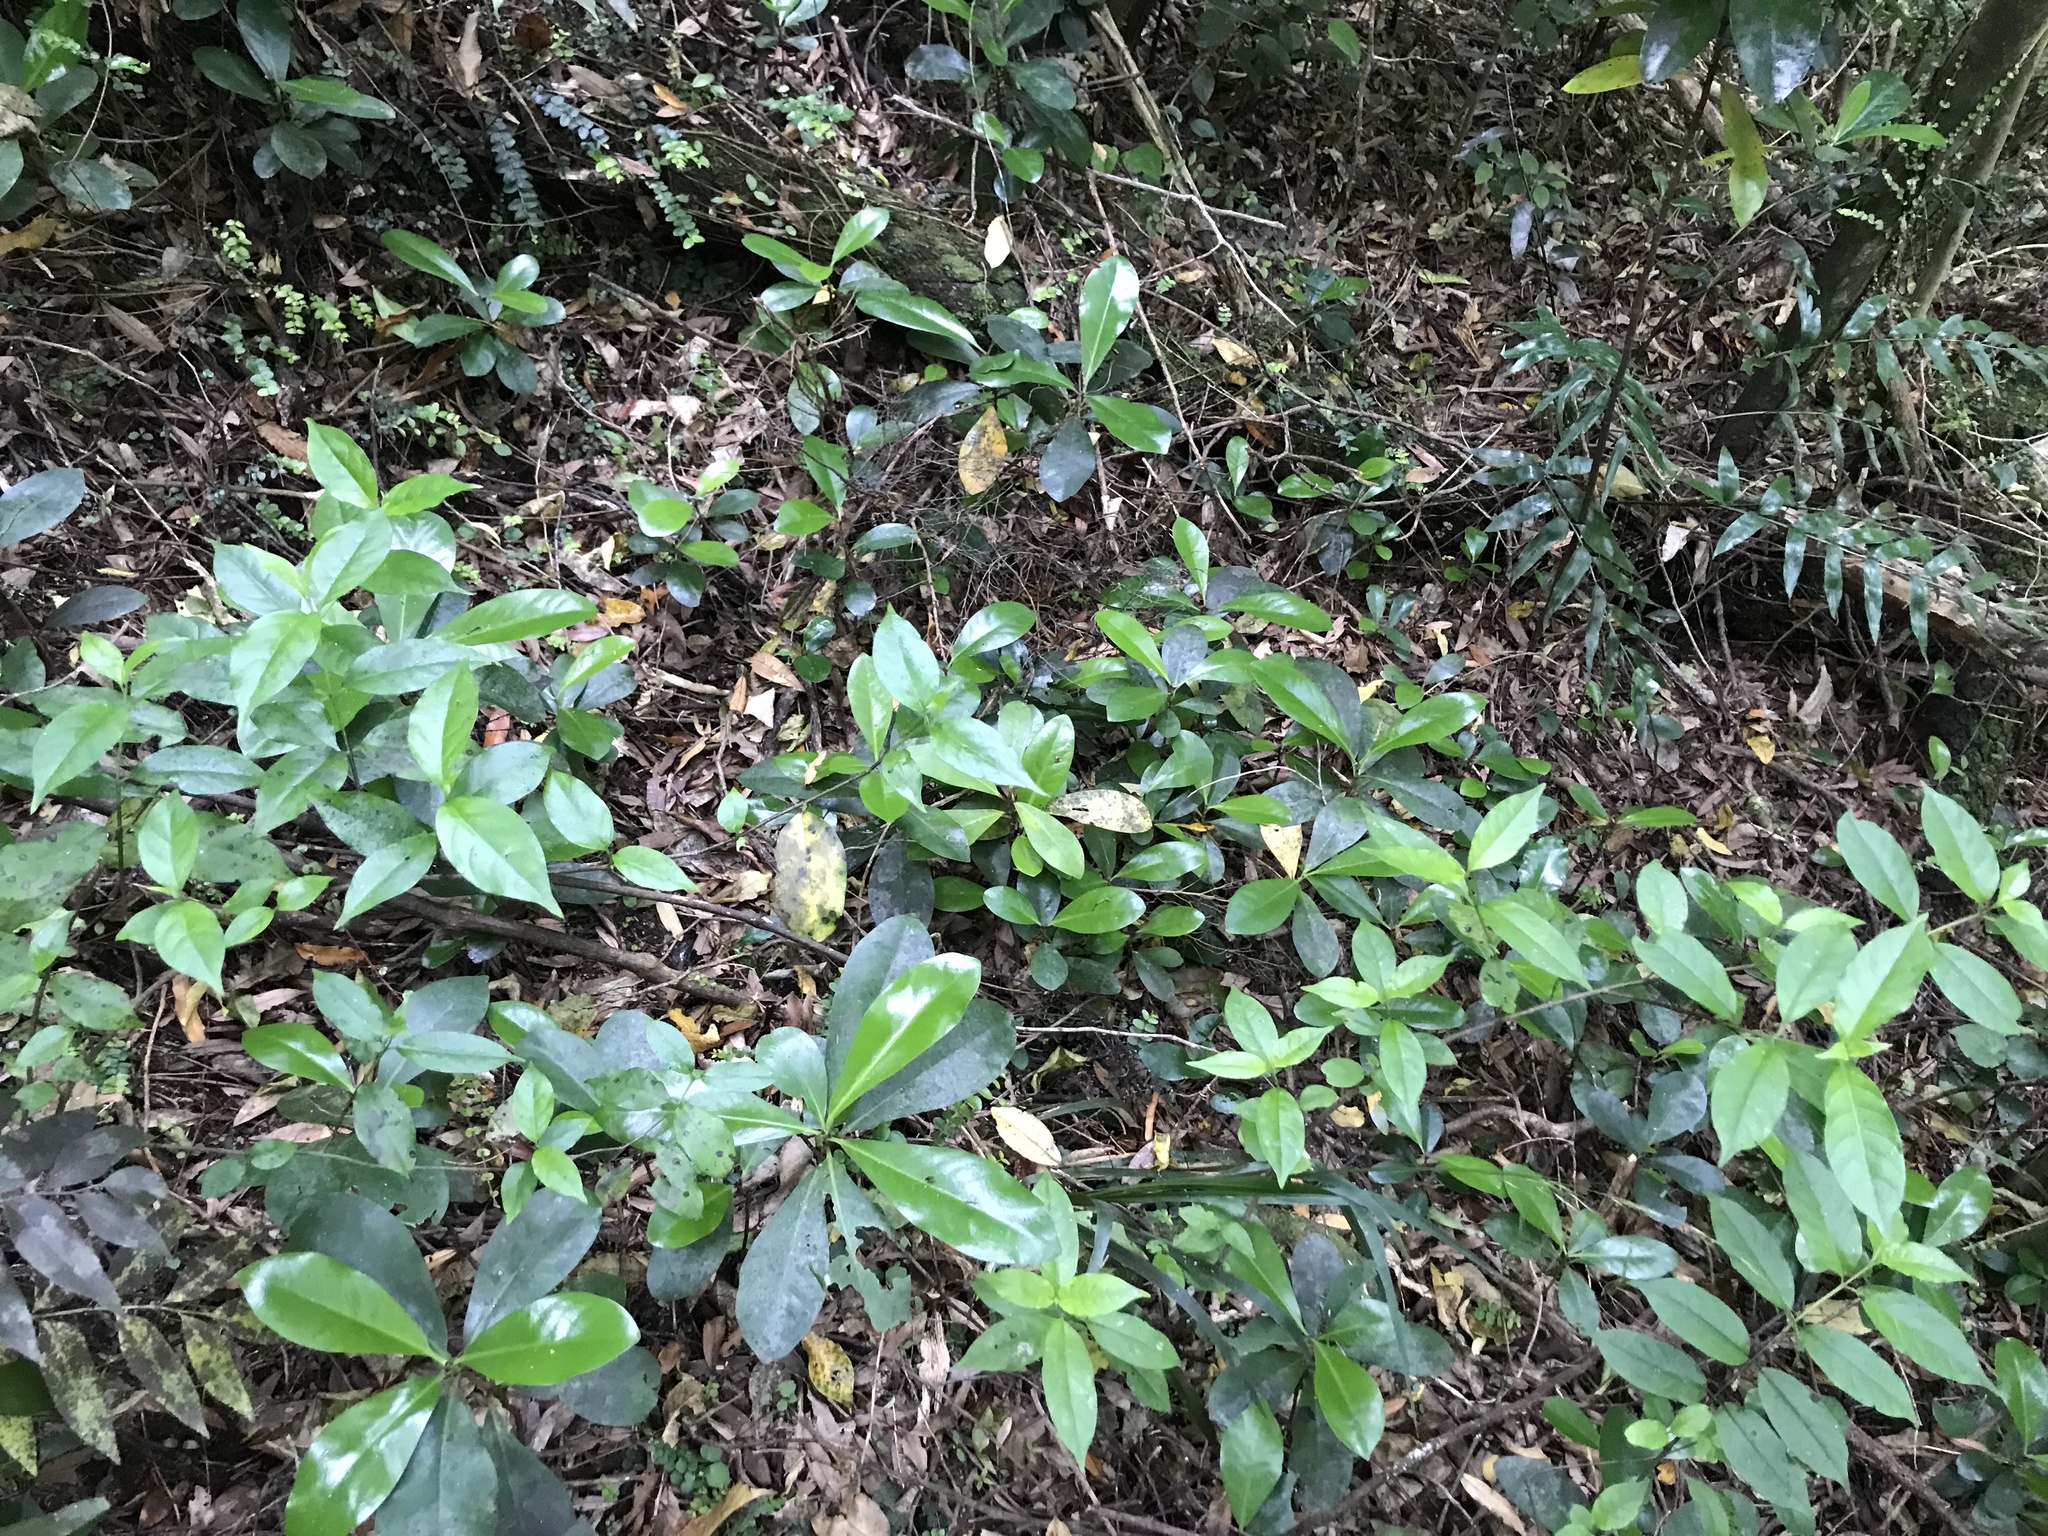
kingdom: Plantae
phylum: Tracheophyta
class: Magnoliopsida
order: Cucurbitales
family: Corynocarpaceae
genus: Corynocarpus
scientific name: Corynocarpus laevigatus
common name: New zealand laurel
